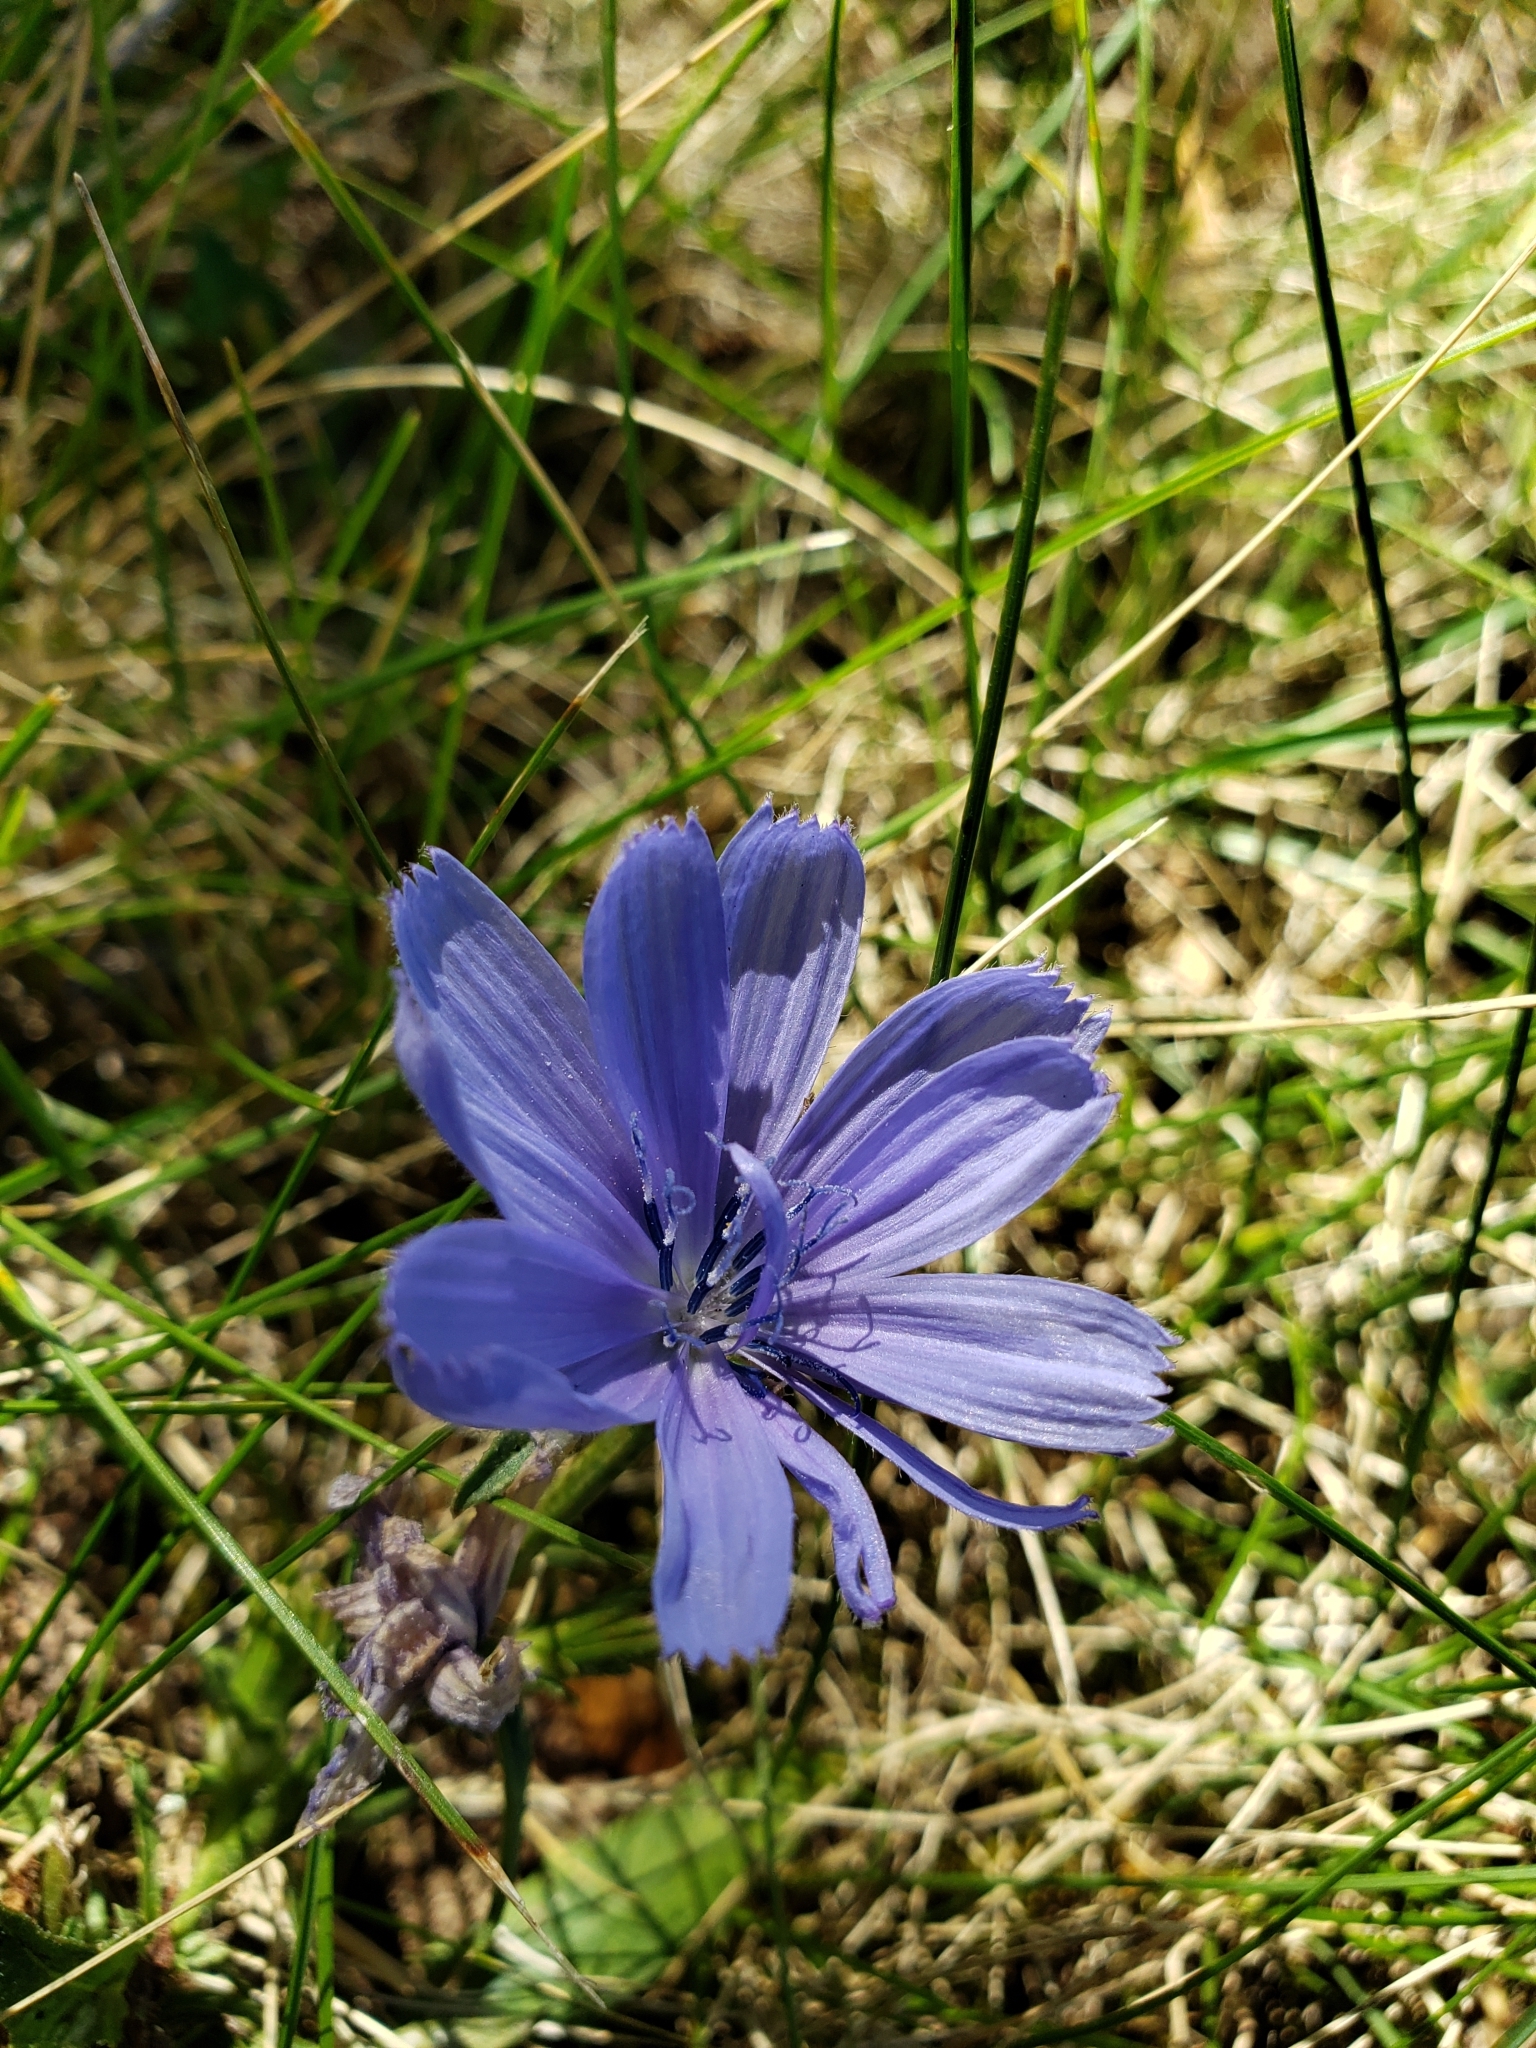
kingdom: Plantae
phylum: Tracheophyta
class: Magnoliopsida
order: Asterales
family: Asteraceae
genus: Cichorium
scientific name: Cichorium intybus
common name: Chicory
